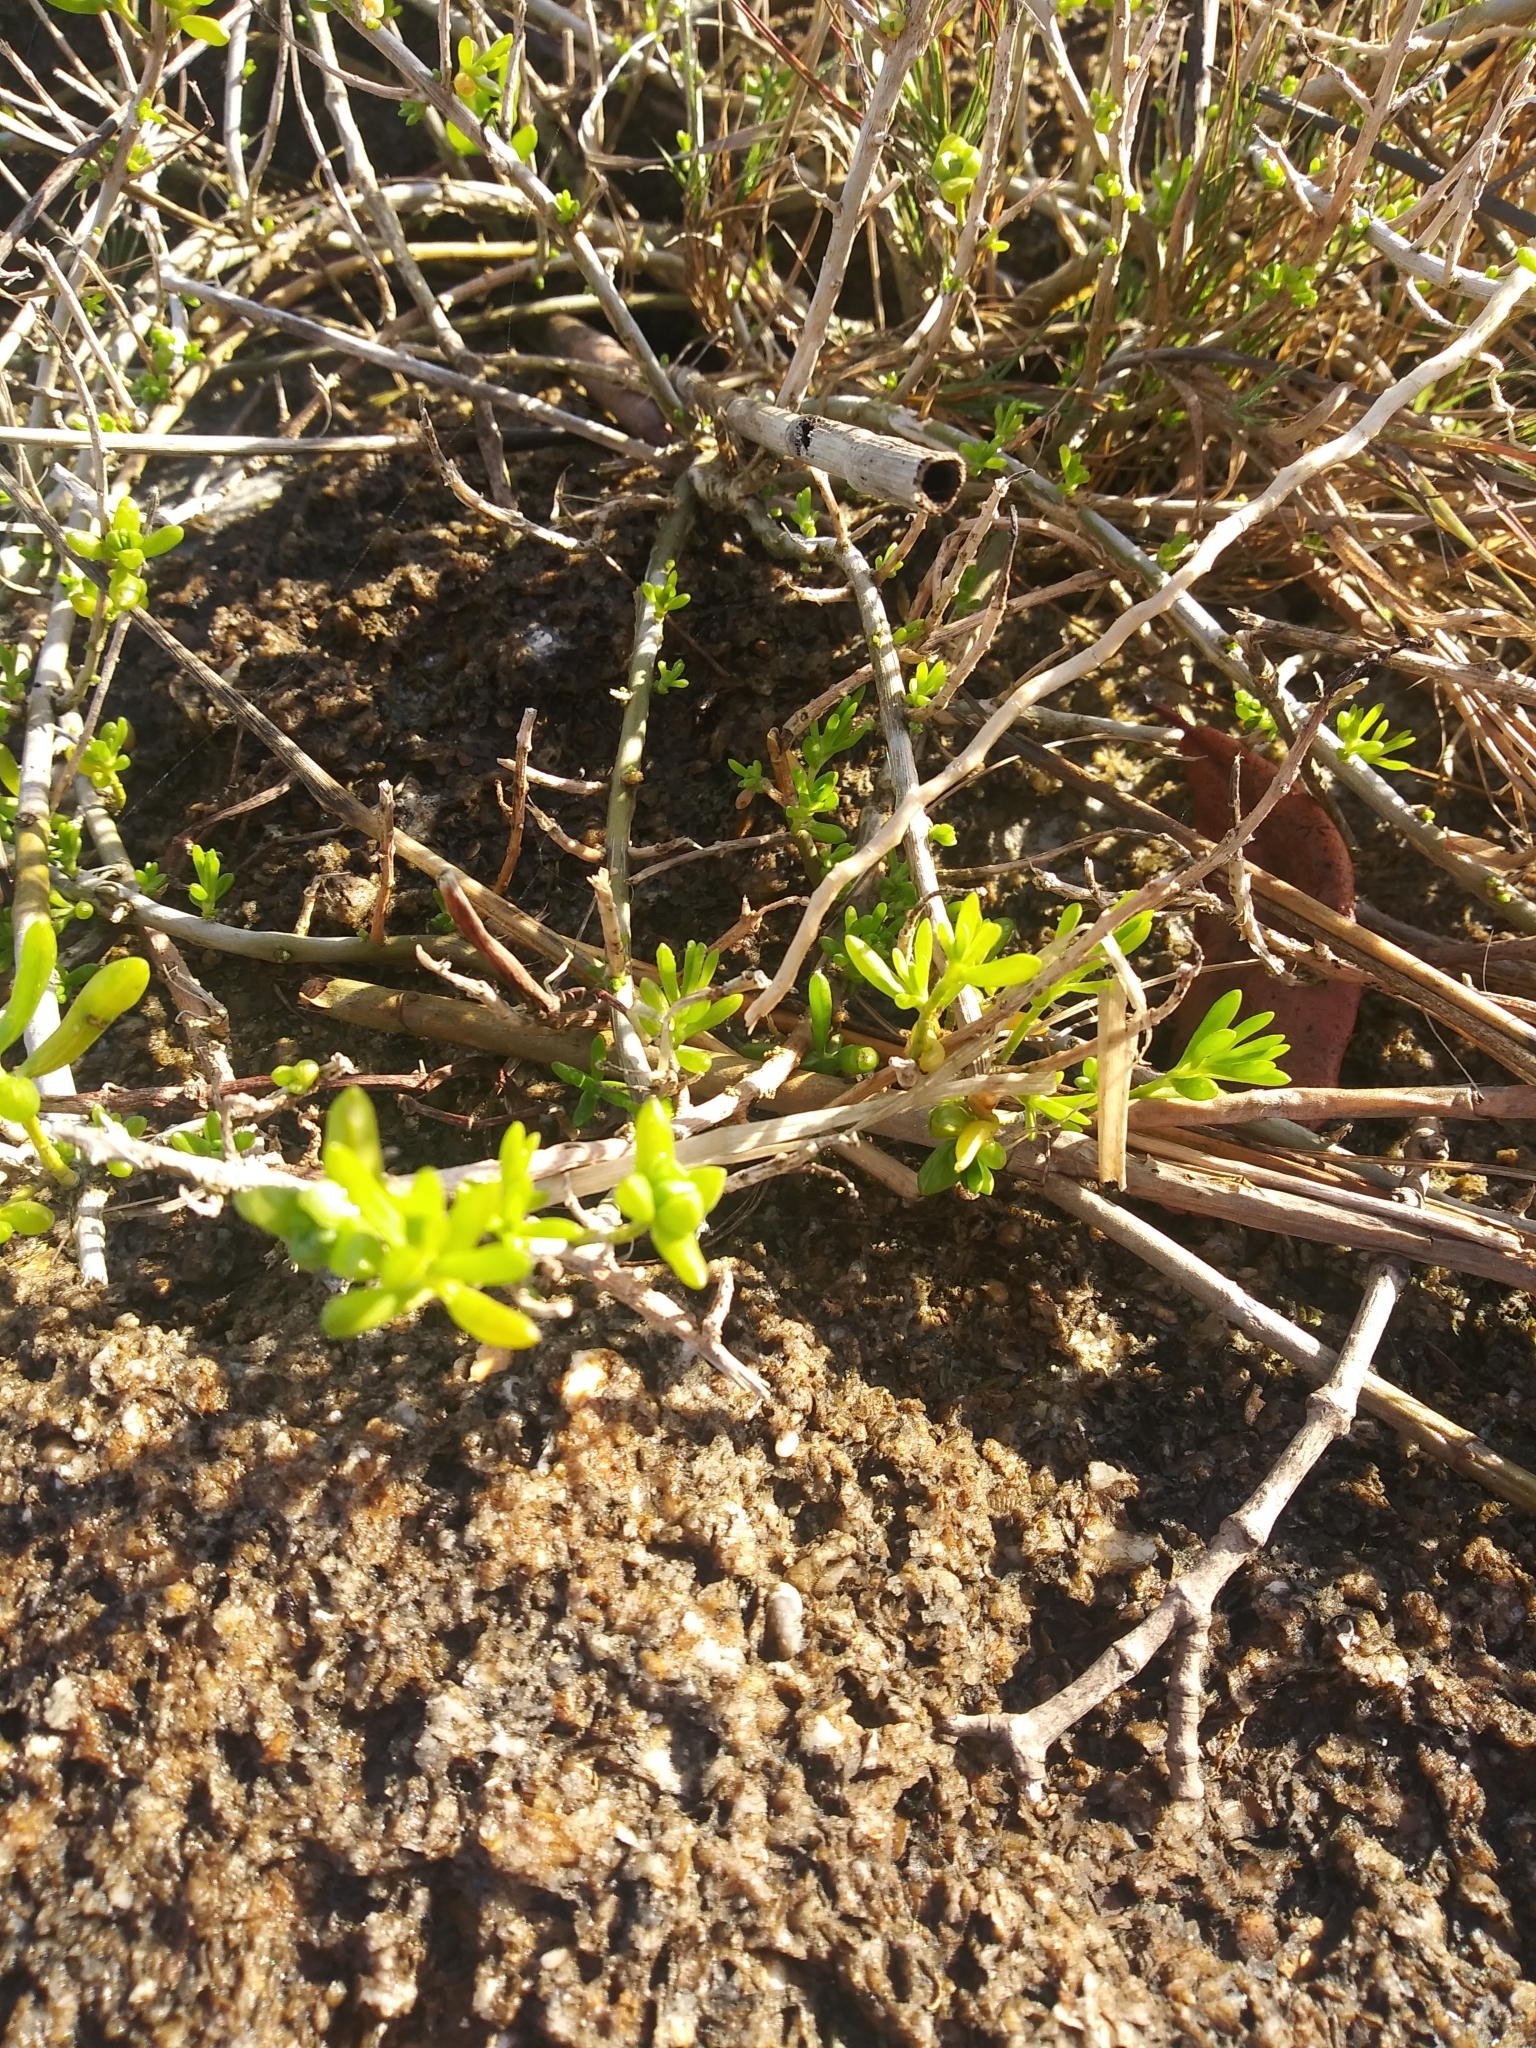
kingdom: Plantae
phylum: Tracheophyta
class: Magnoliopsida
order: Brassicales
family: Bataceae
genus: Batis
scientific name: Batis maritima
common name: Turtleweed
